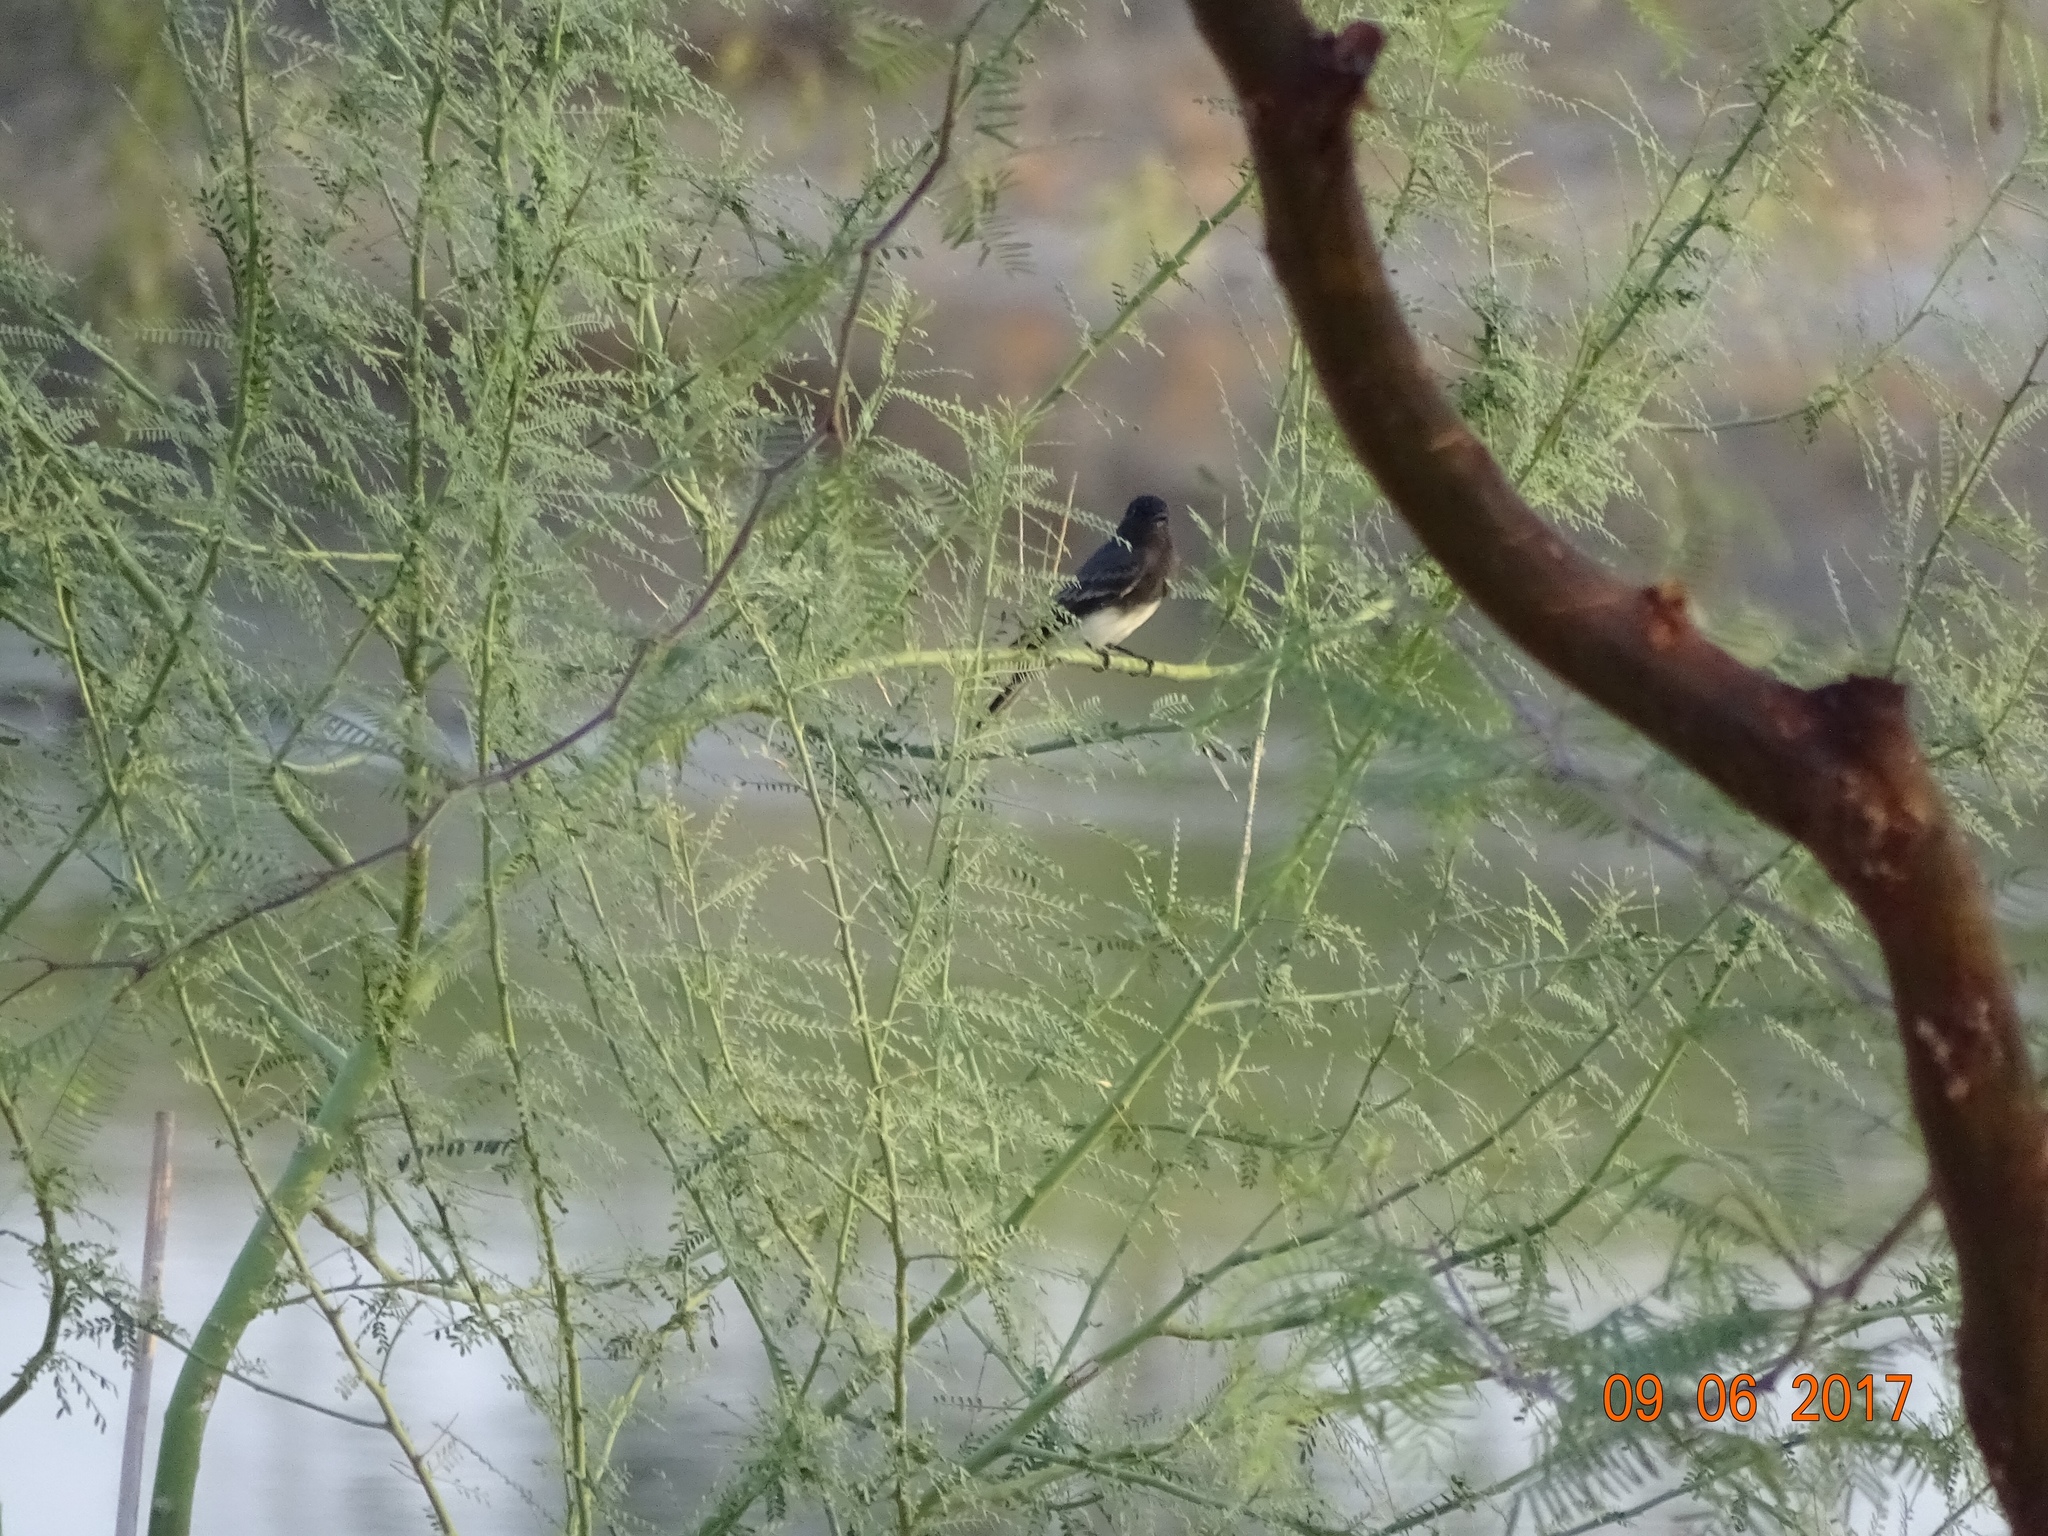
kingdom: Animalia
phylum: Chordata
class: Aves
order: Passeriformes
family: Tyrannidae
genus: Sayornis
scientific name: Sayornis nigricans
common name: Black phoebe
